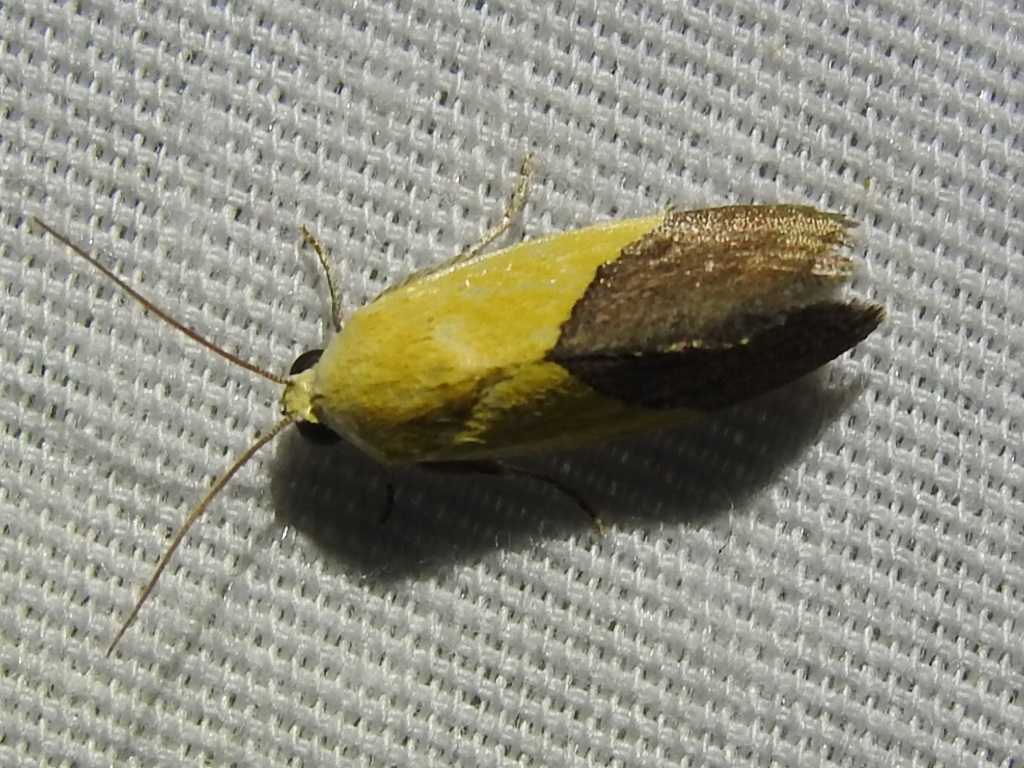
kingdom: Animalia
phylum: Arthropoda
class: Insecta
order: Lepidoptera
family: Noctuidae
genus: Acontia
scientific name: Acontia semiflava
